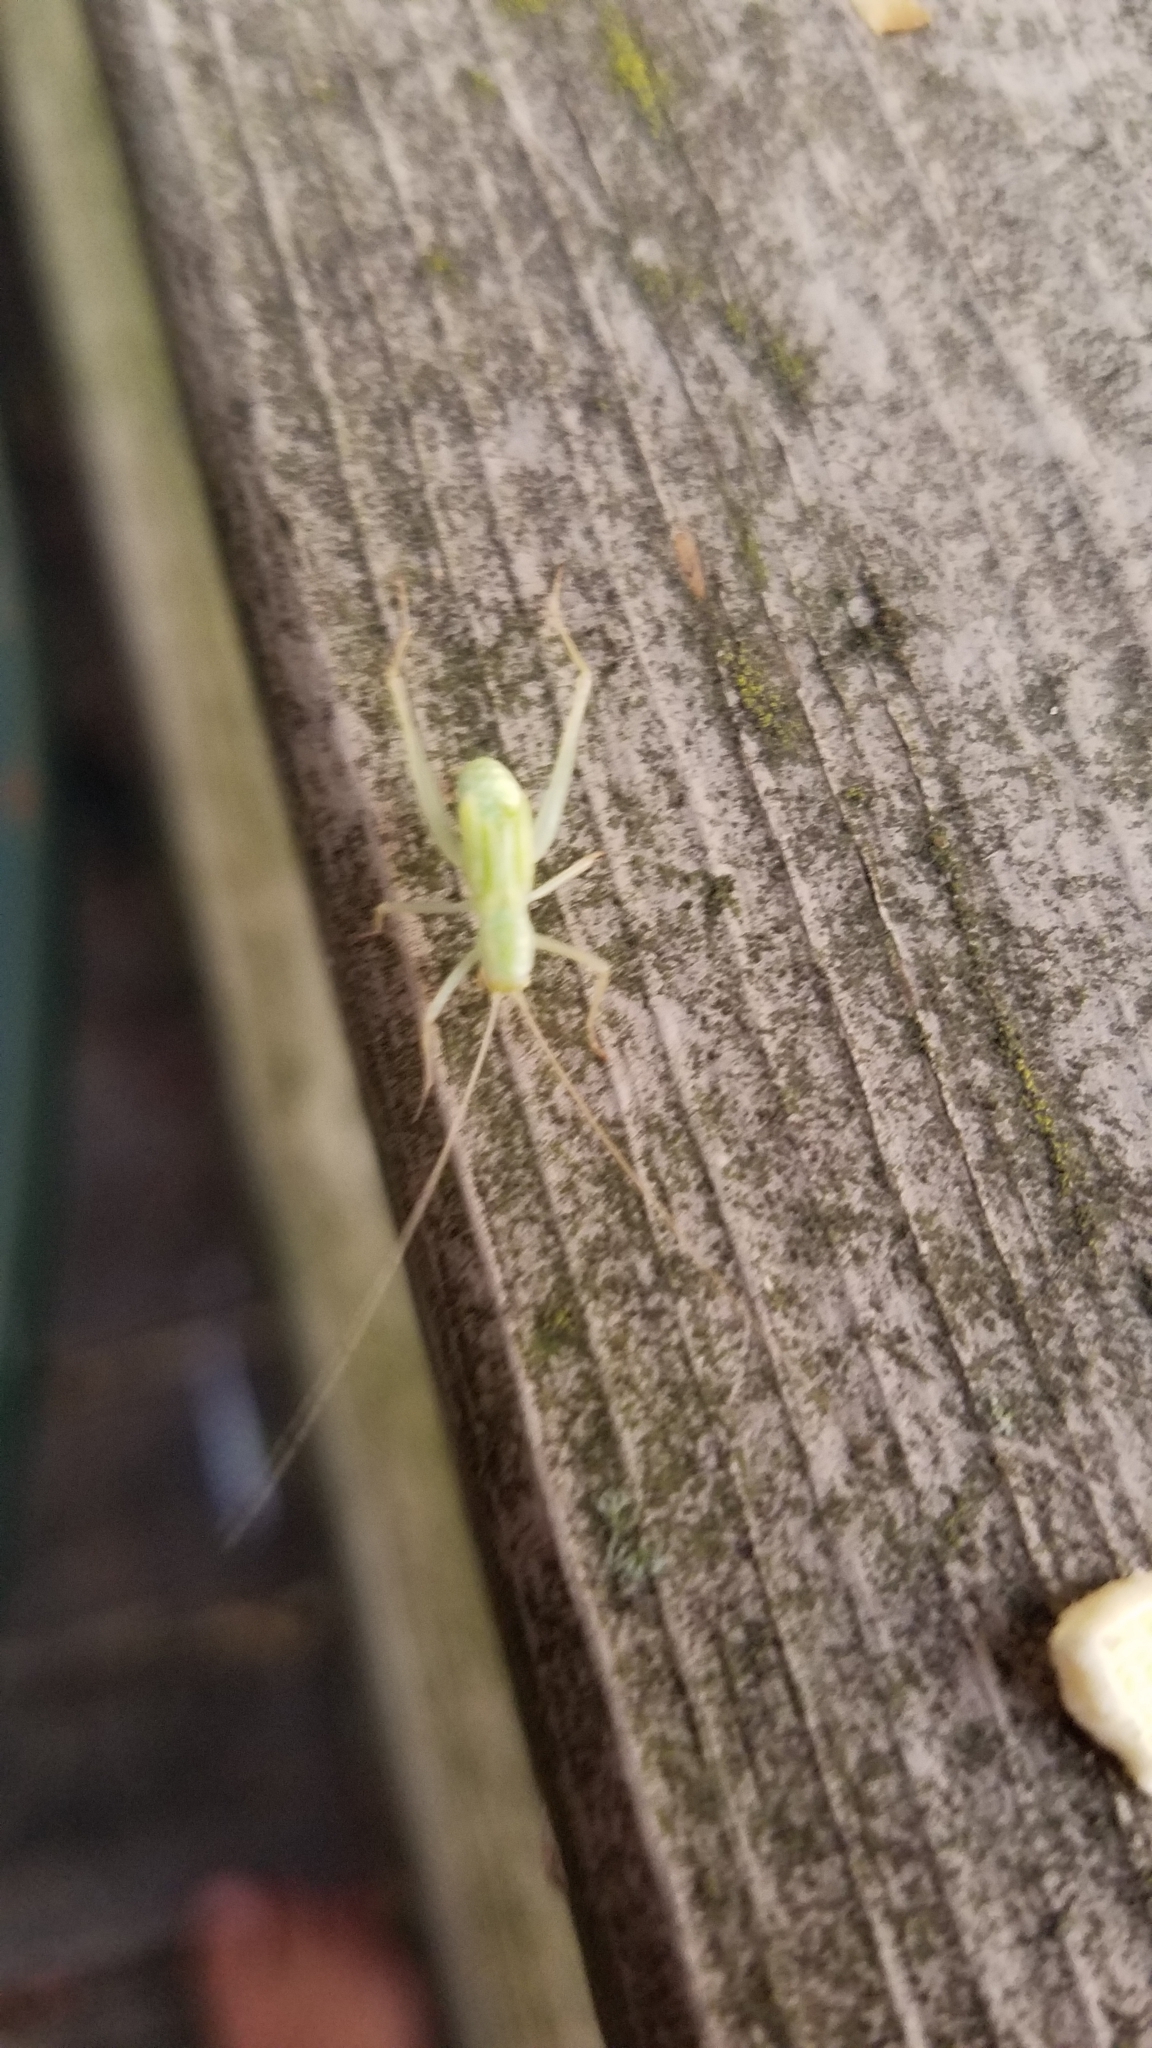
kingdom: Animalia
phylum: Arthropoda
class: Insecta
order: Orthoptera
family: Gryllidae
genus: Oecanthus
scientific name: Oecanthus
